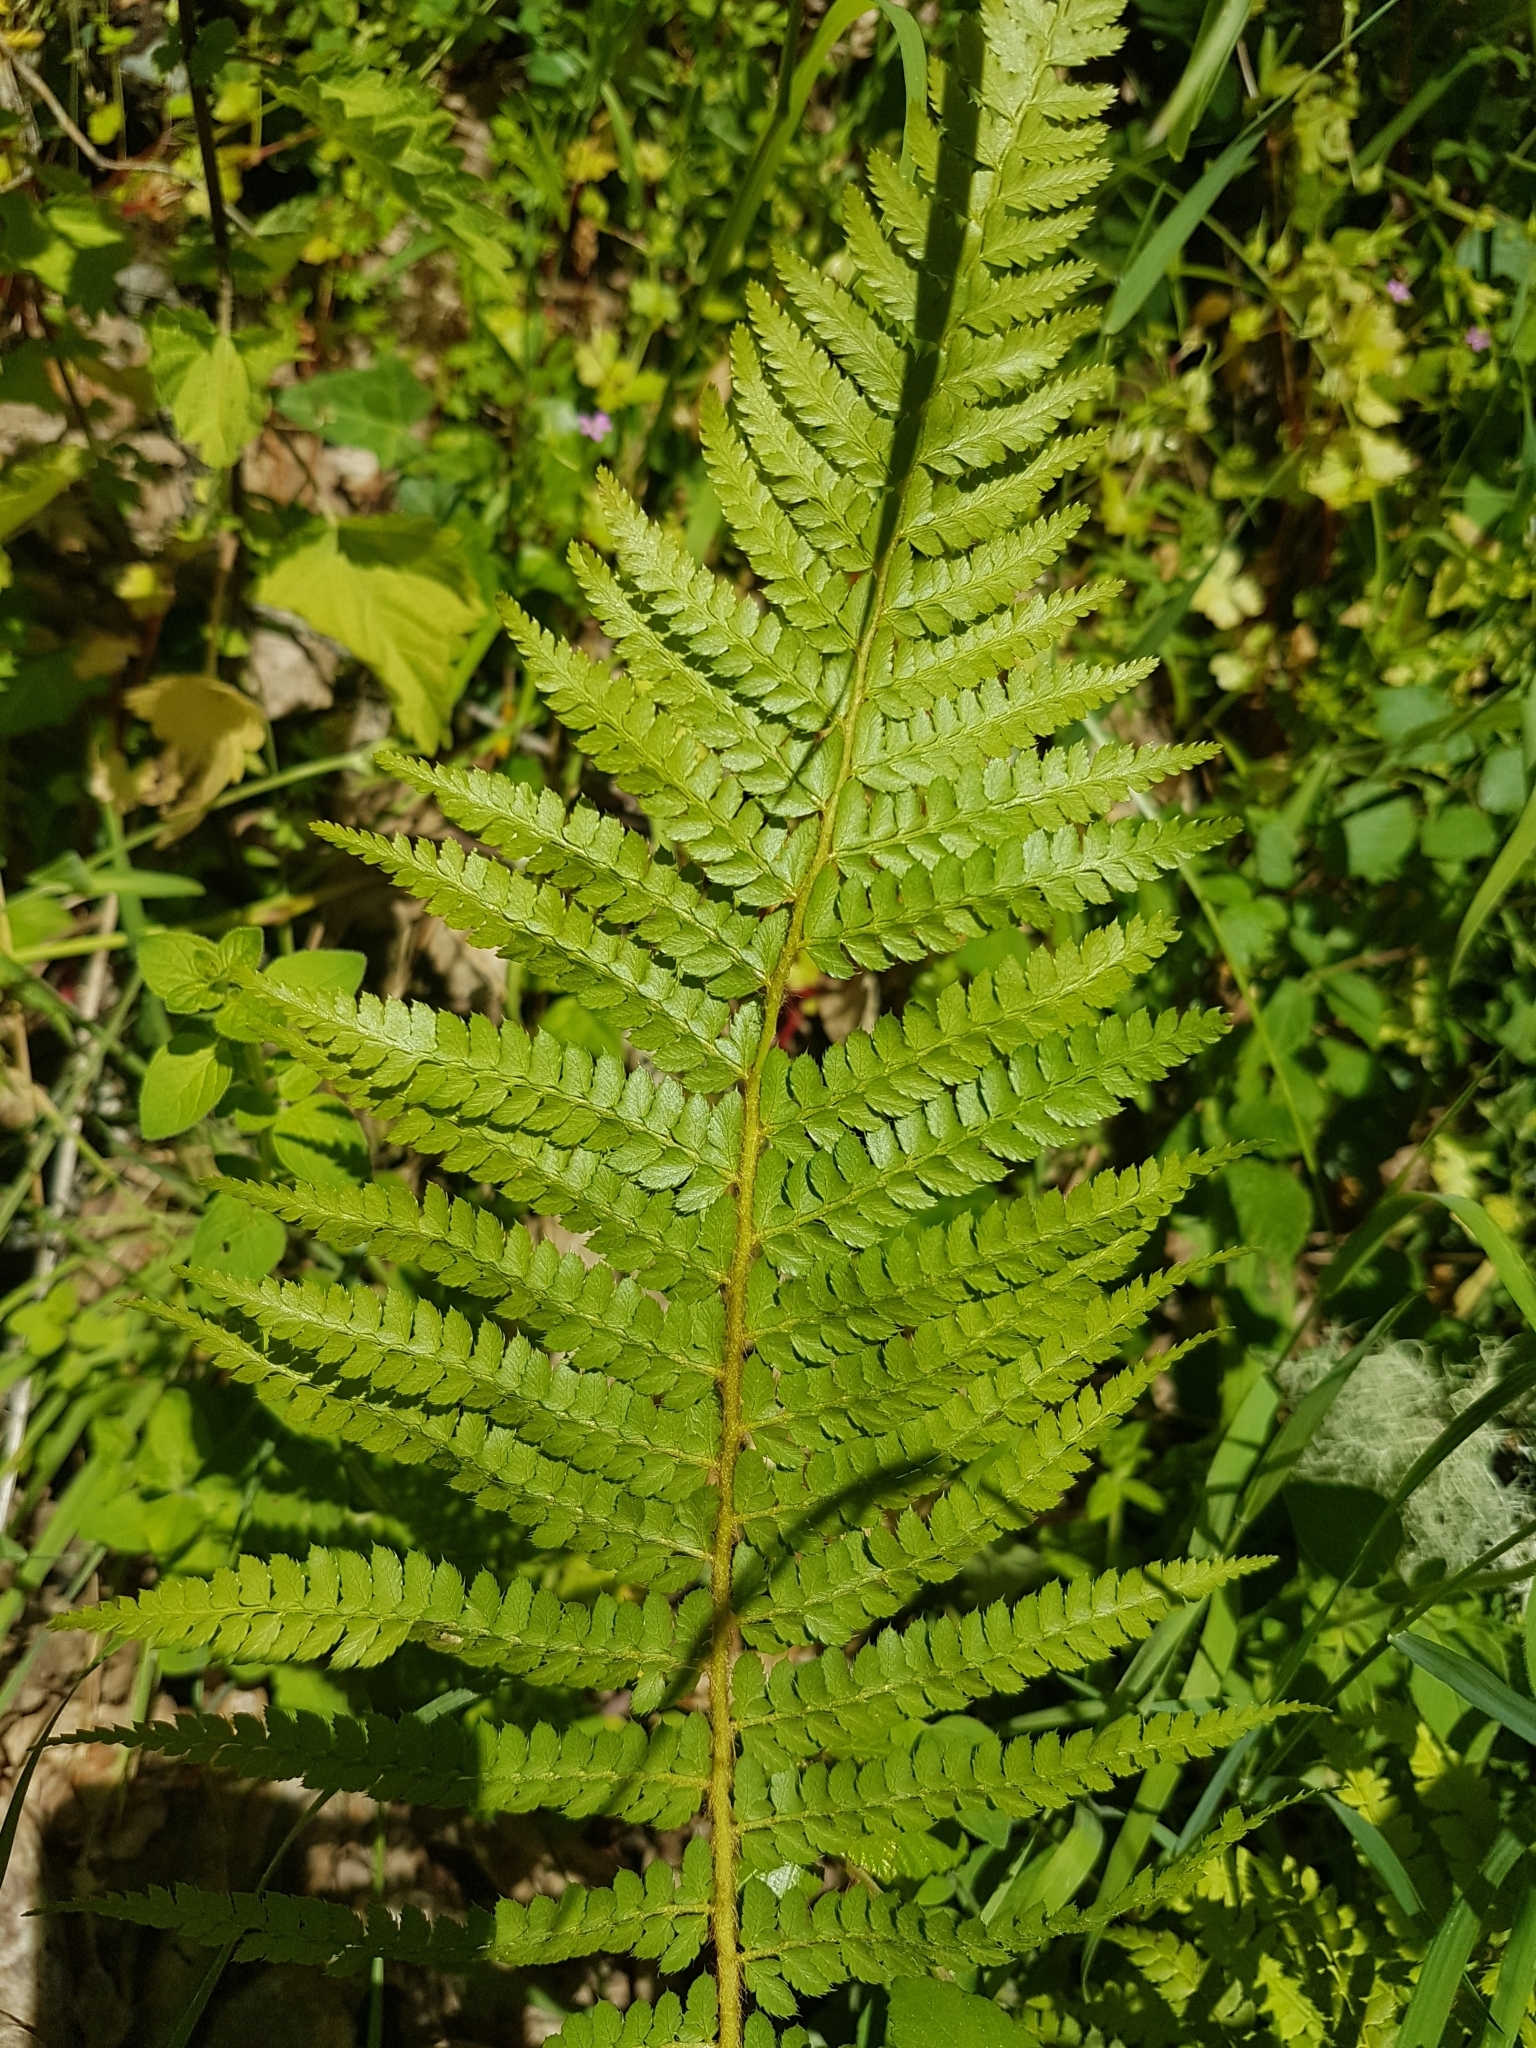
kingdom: Plantae
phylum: Tracheophyta
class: Polypodiopsida
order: Polypodiales
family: Dryopteridaceae
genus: Polystichum
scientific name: Polystichum setiferum
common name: Soft shield-fern
